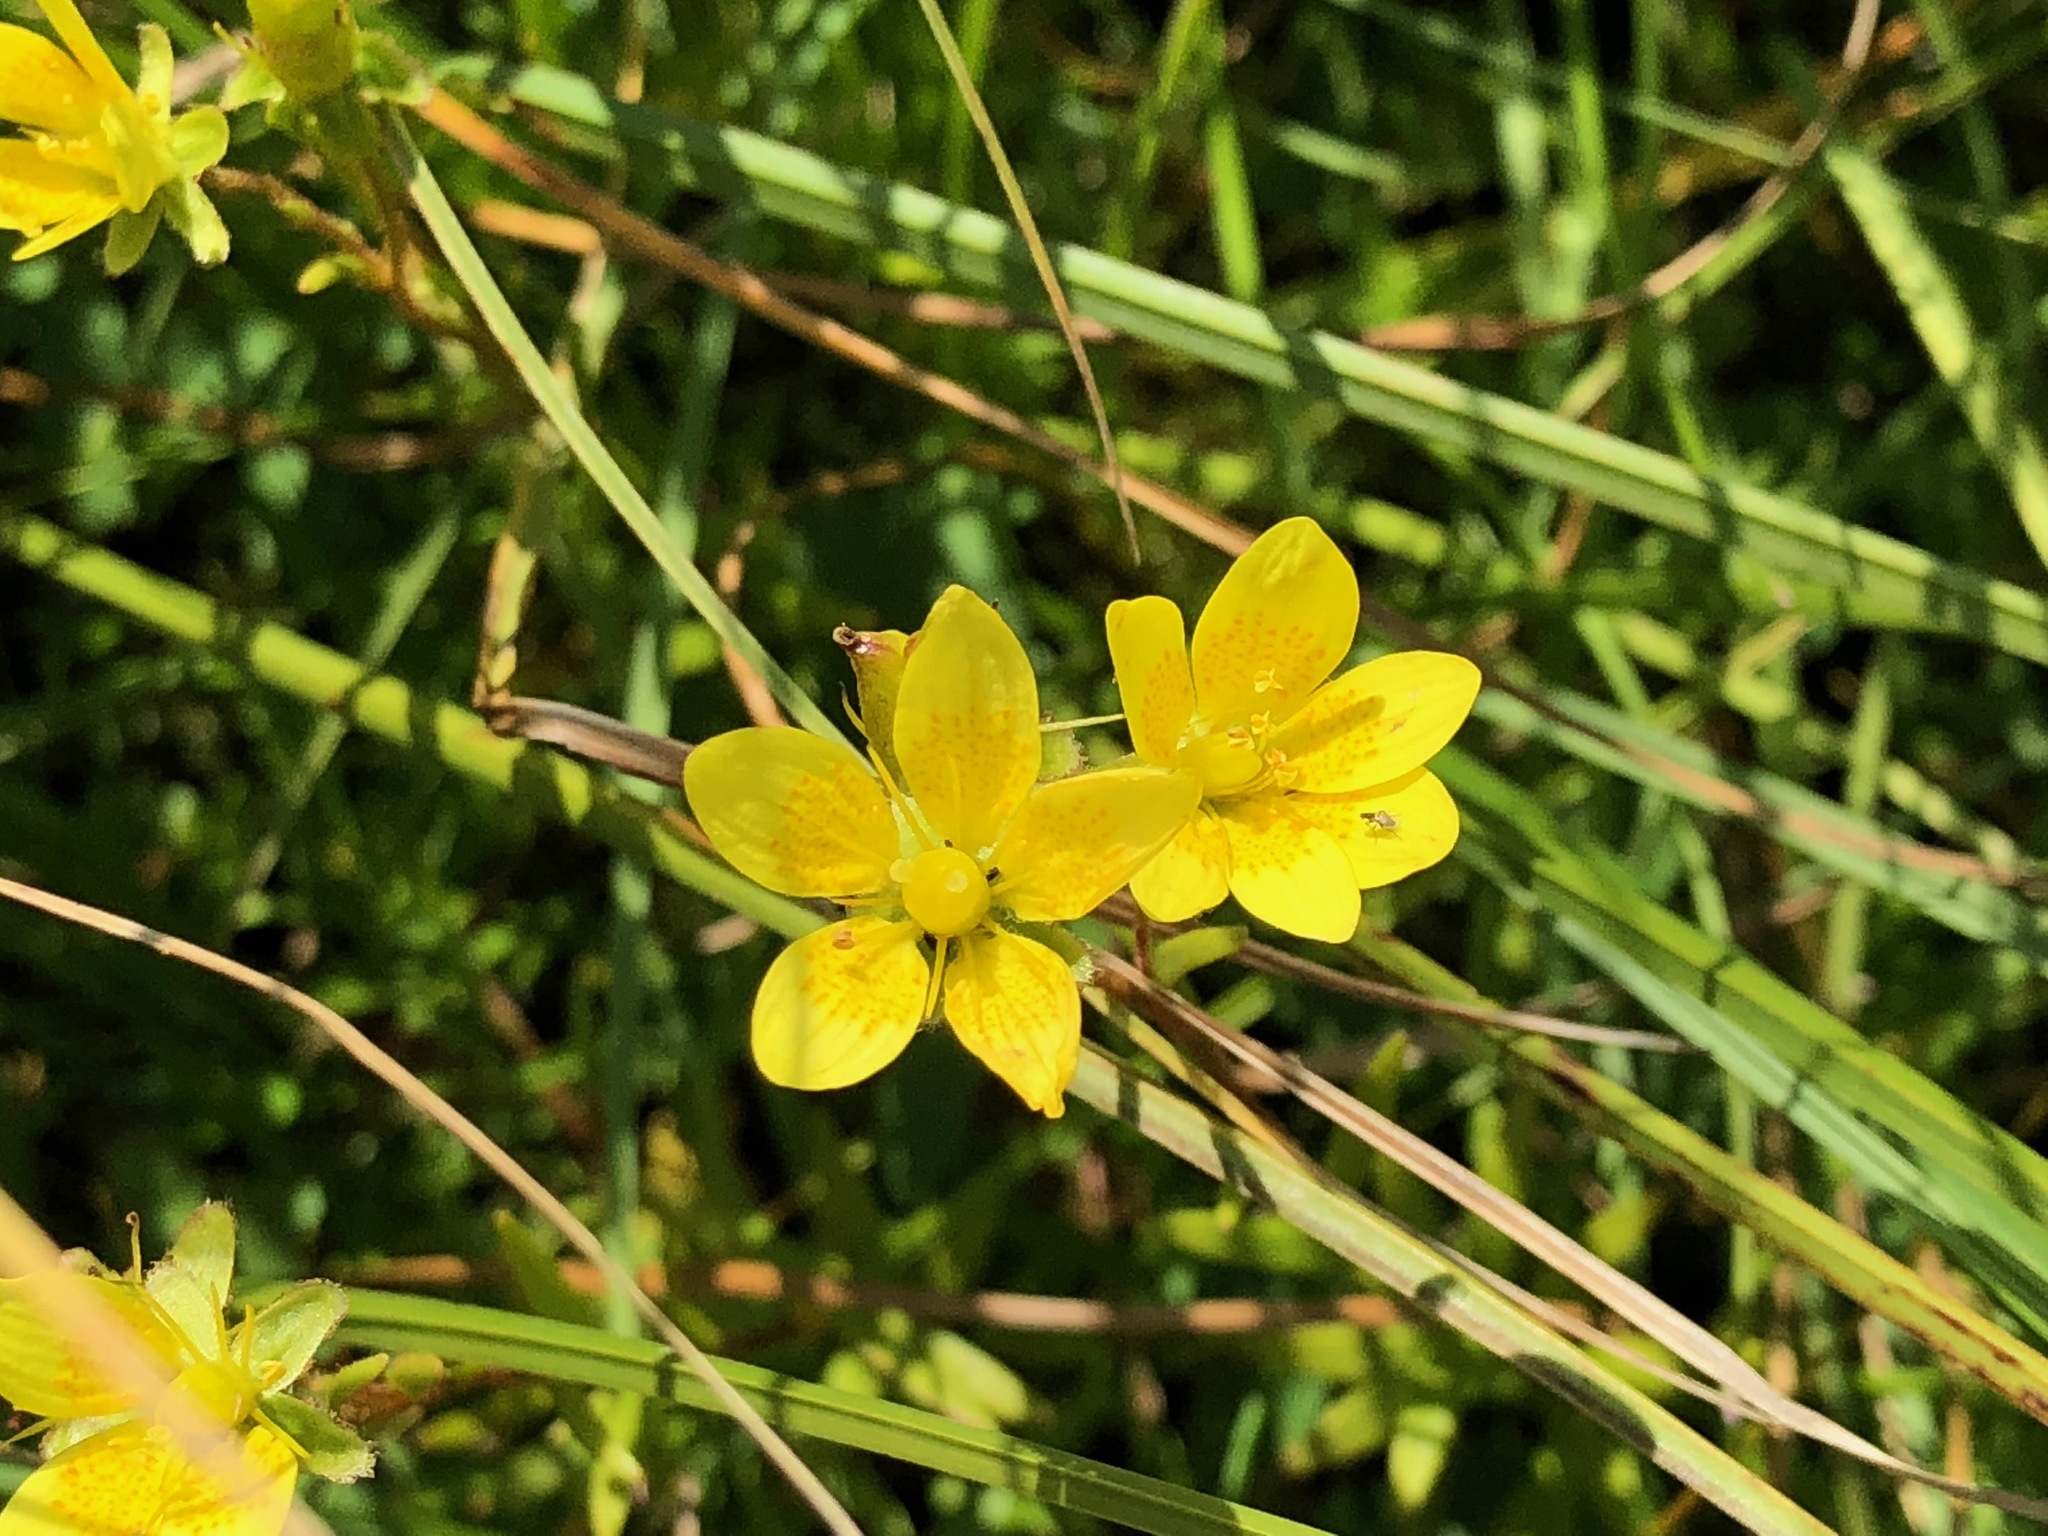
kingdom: Plantae
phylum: Tracheophyta
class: Magnoliopsida
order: Saxifragales
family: Saxifragaceae
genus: Saxifraga
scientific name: Saxifraga hirculus
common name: Yellow marsh saxifrage
